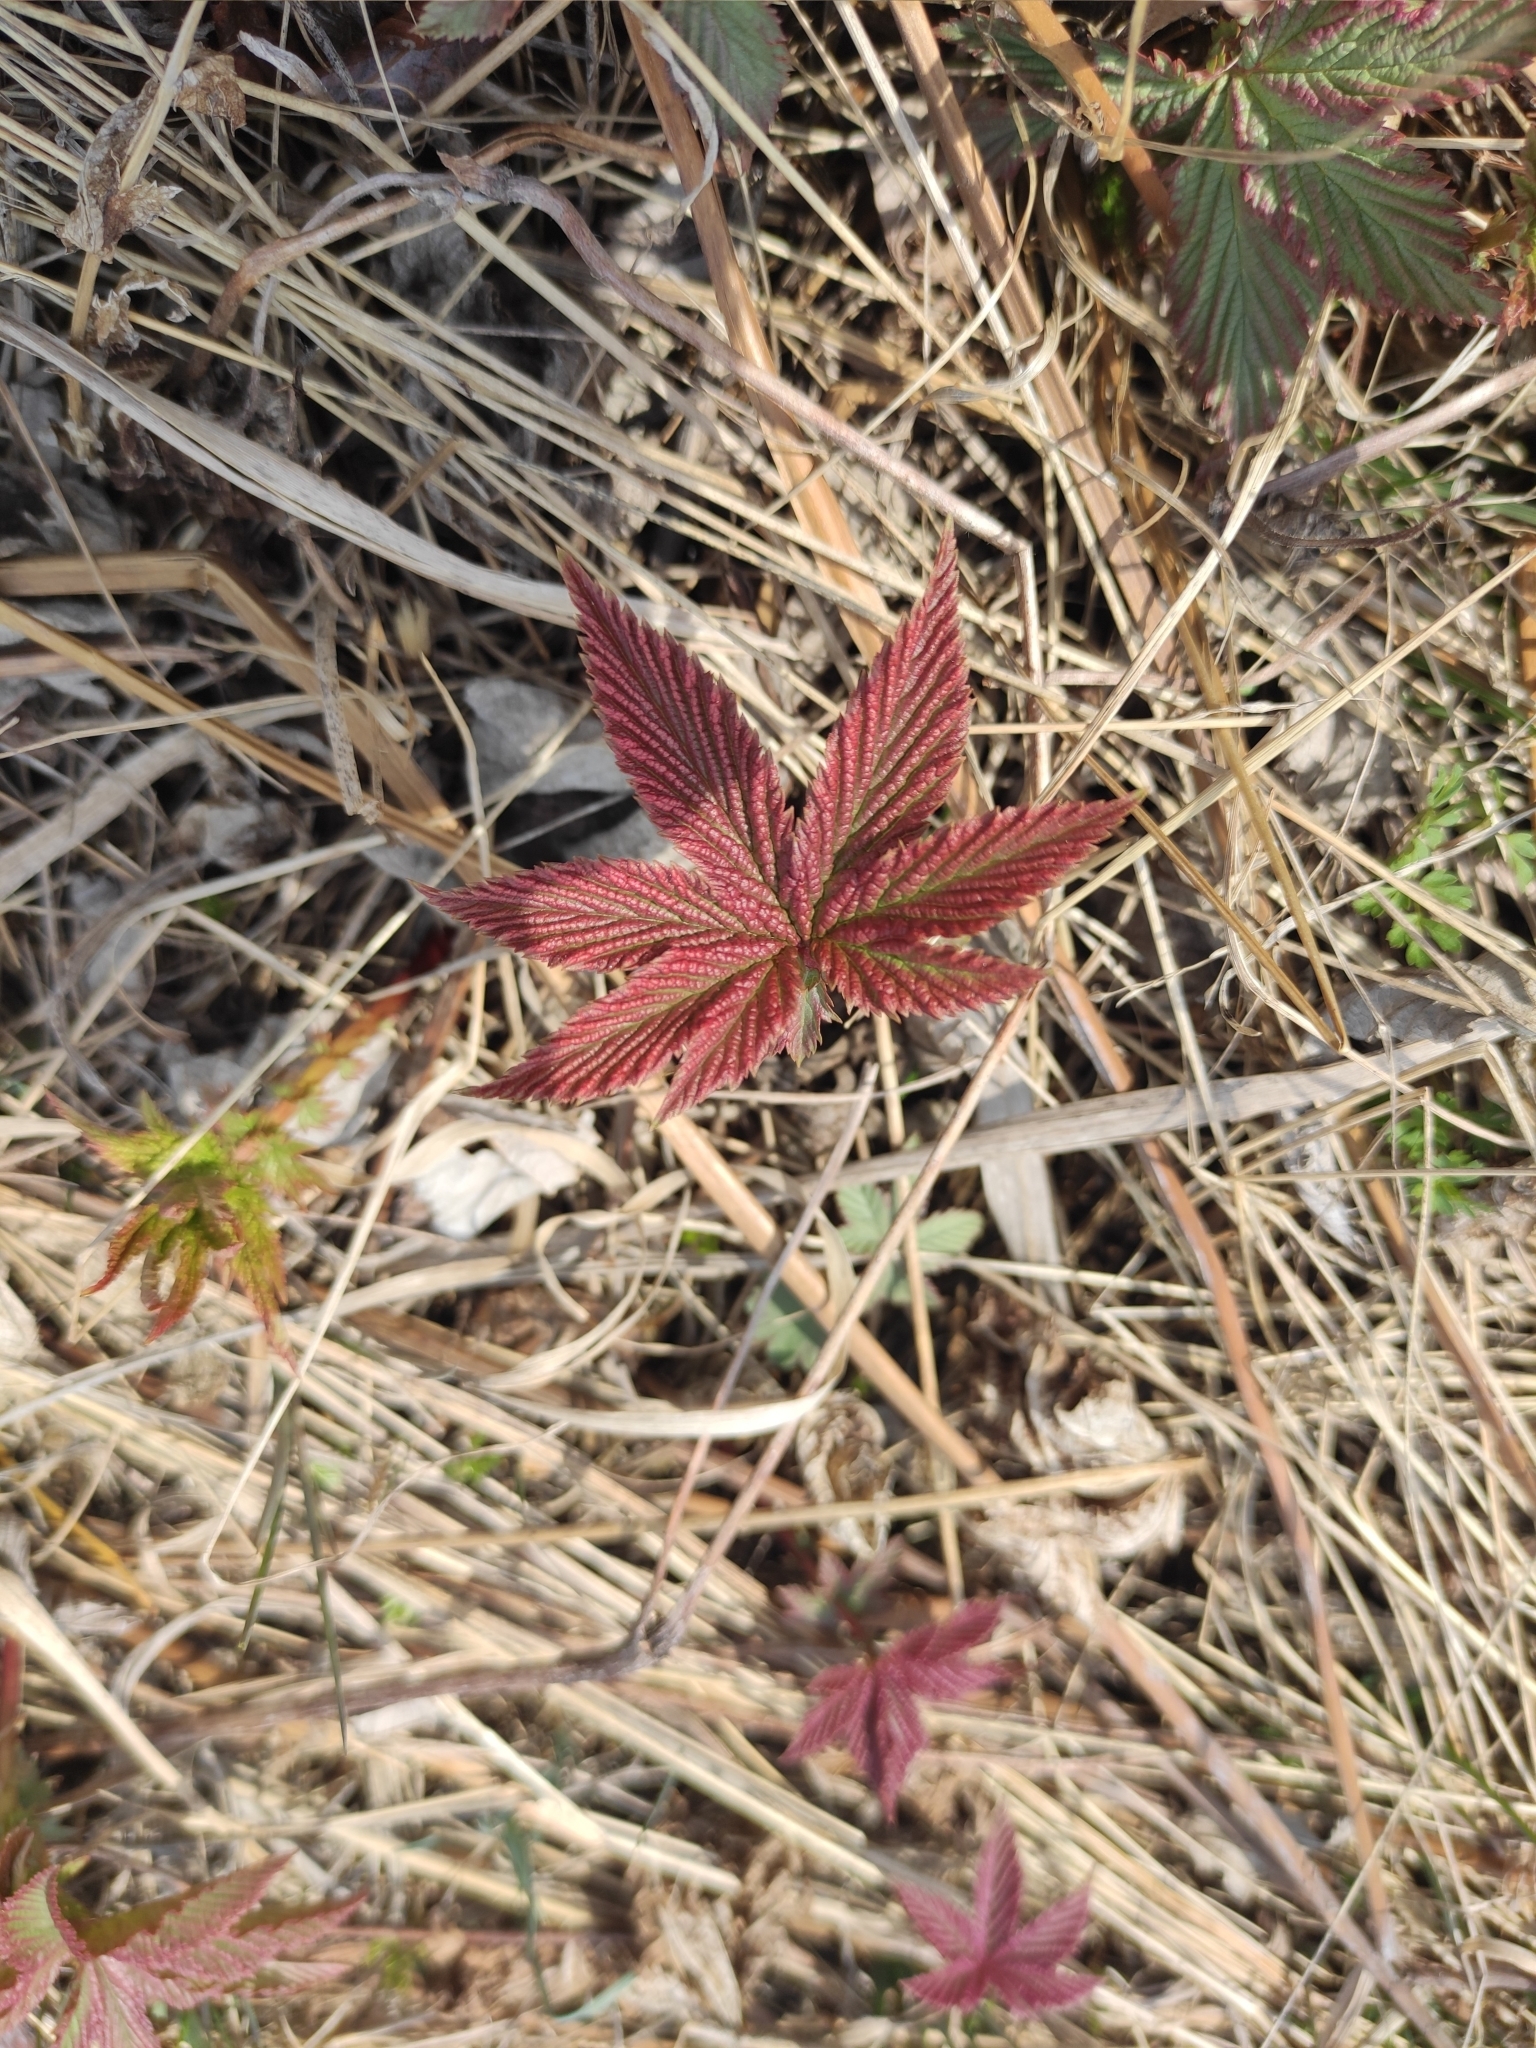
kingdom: Plantae
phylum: Tracheophyta
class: Magnoliopsida
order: Rosales
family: Rosaceae
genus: Filipendula
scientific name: Filipendula digitata
